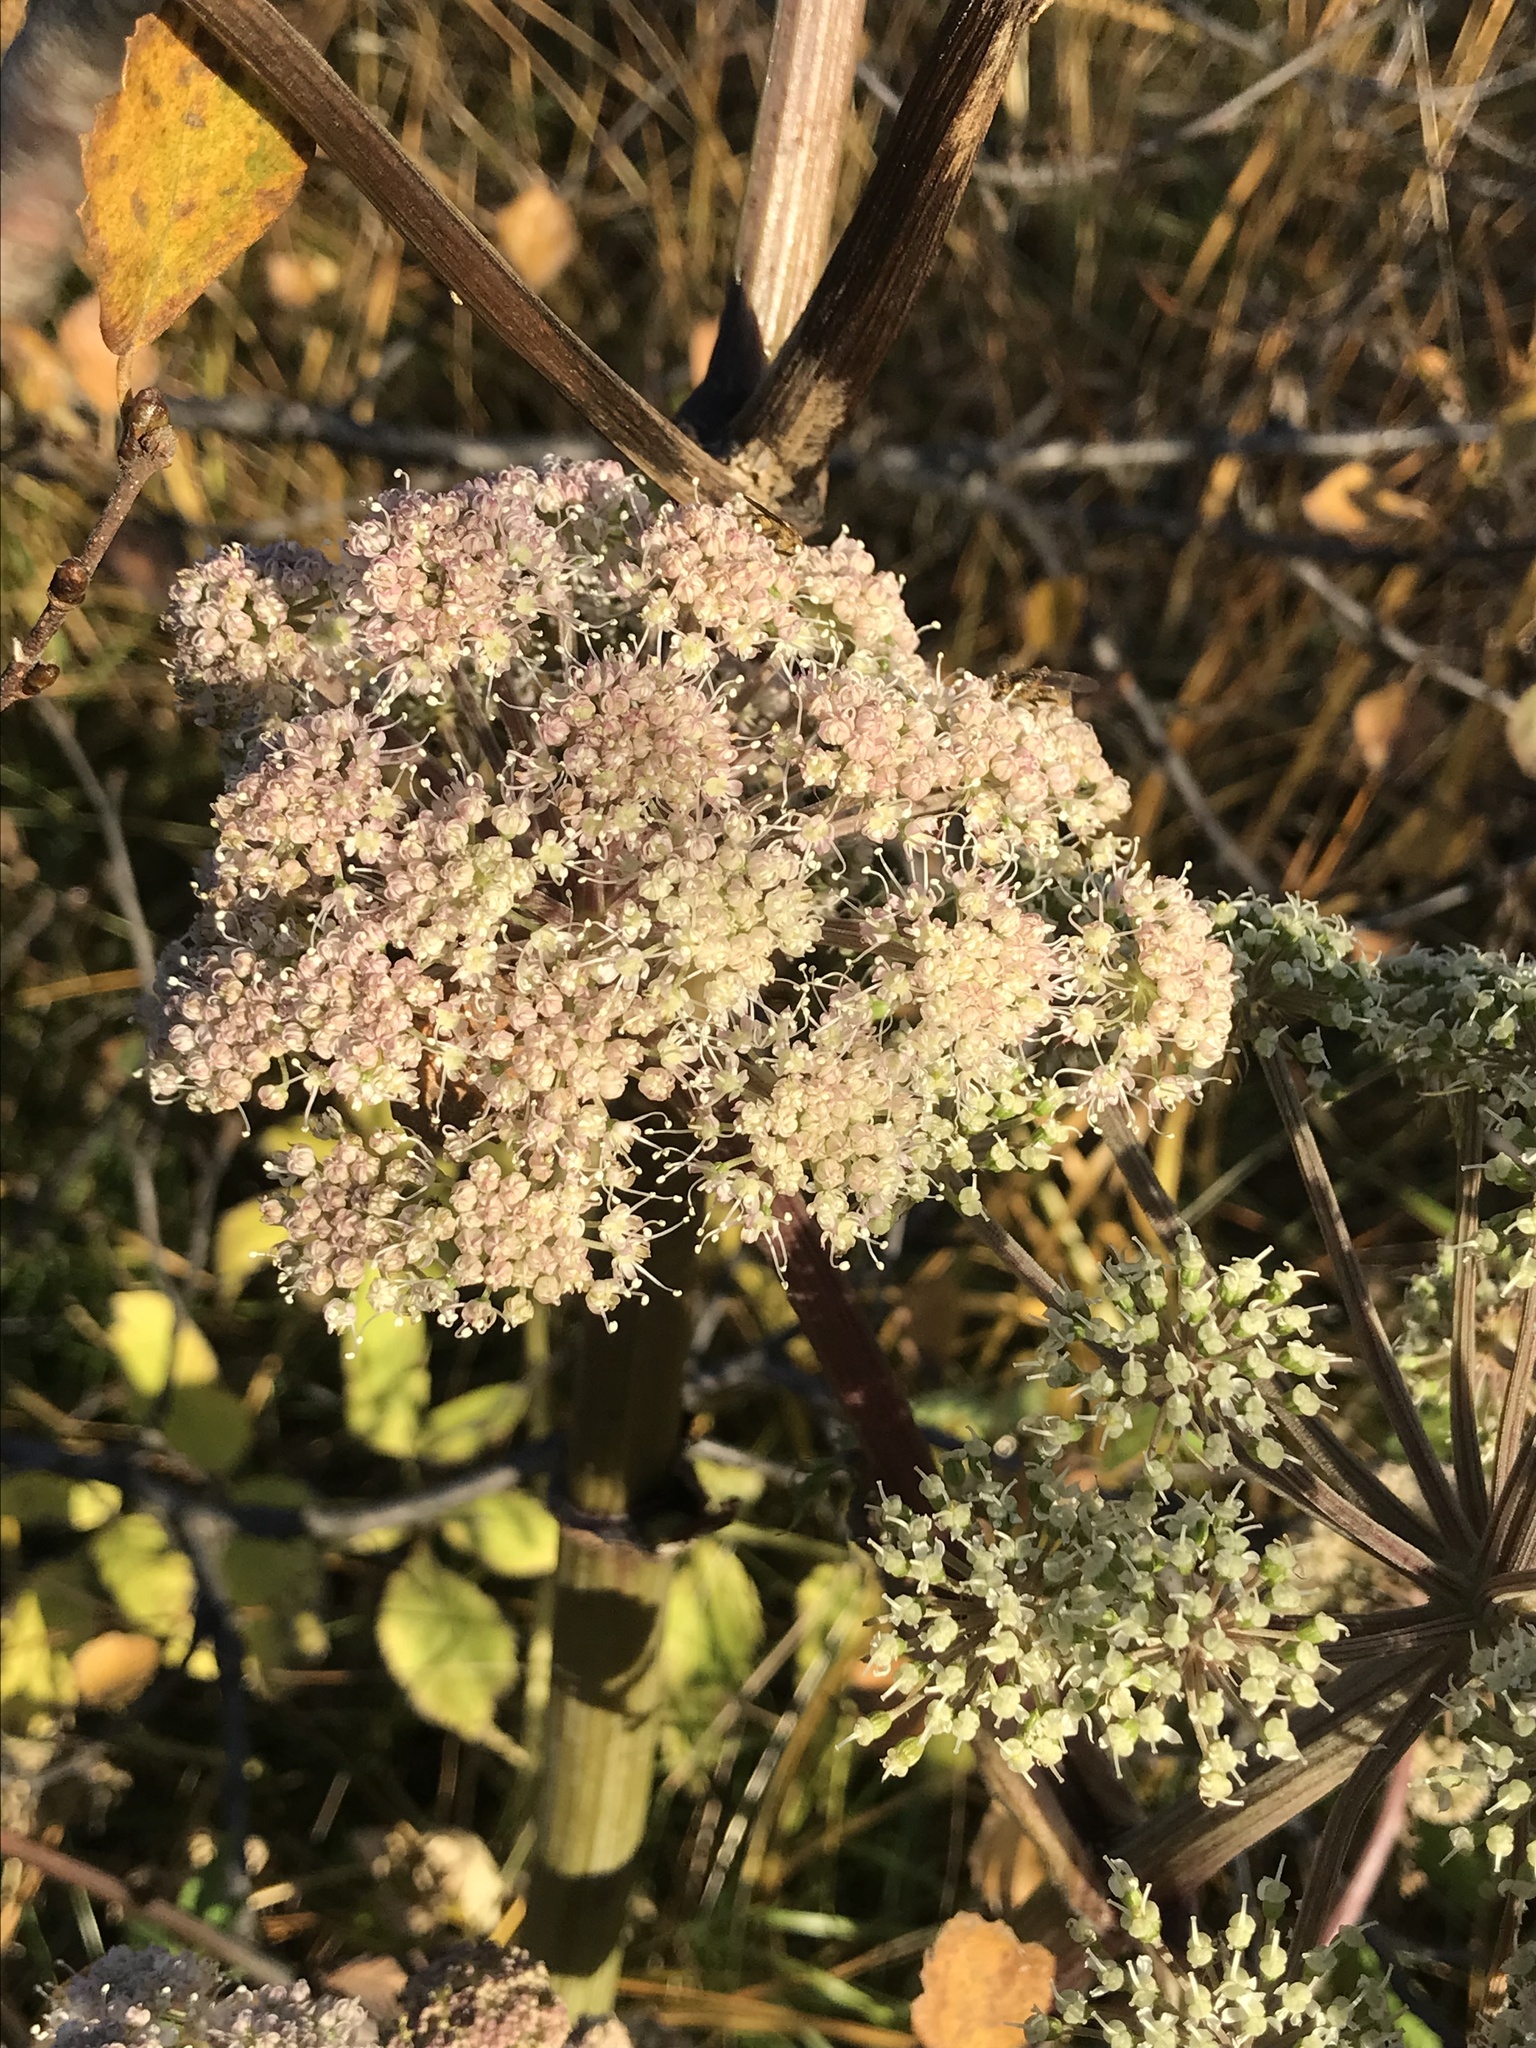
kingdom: Plantae
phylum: Tracheophyta
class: Magnoliopsida
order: Apiales
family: Apiaceae
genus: Angelica
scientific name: Angelica archangelica
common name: Garden angelica
